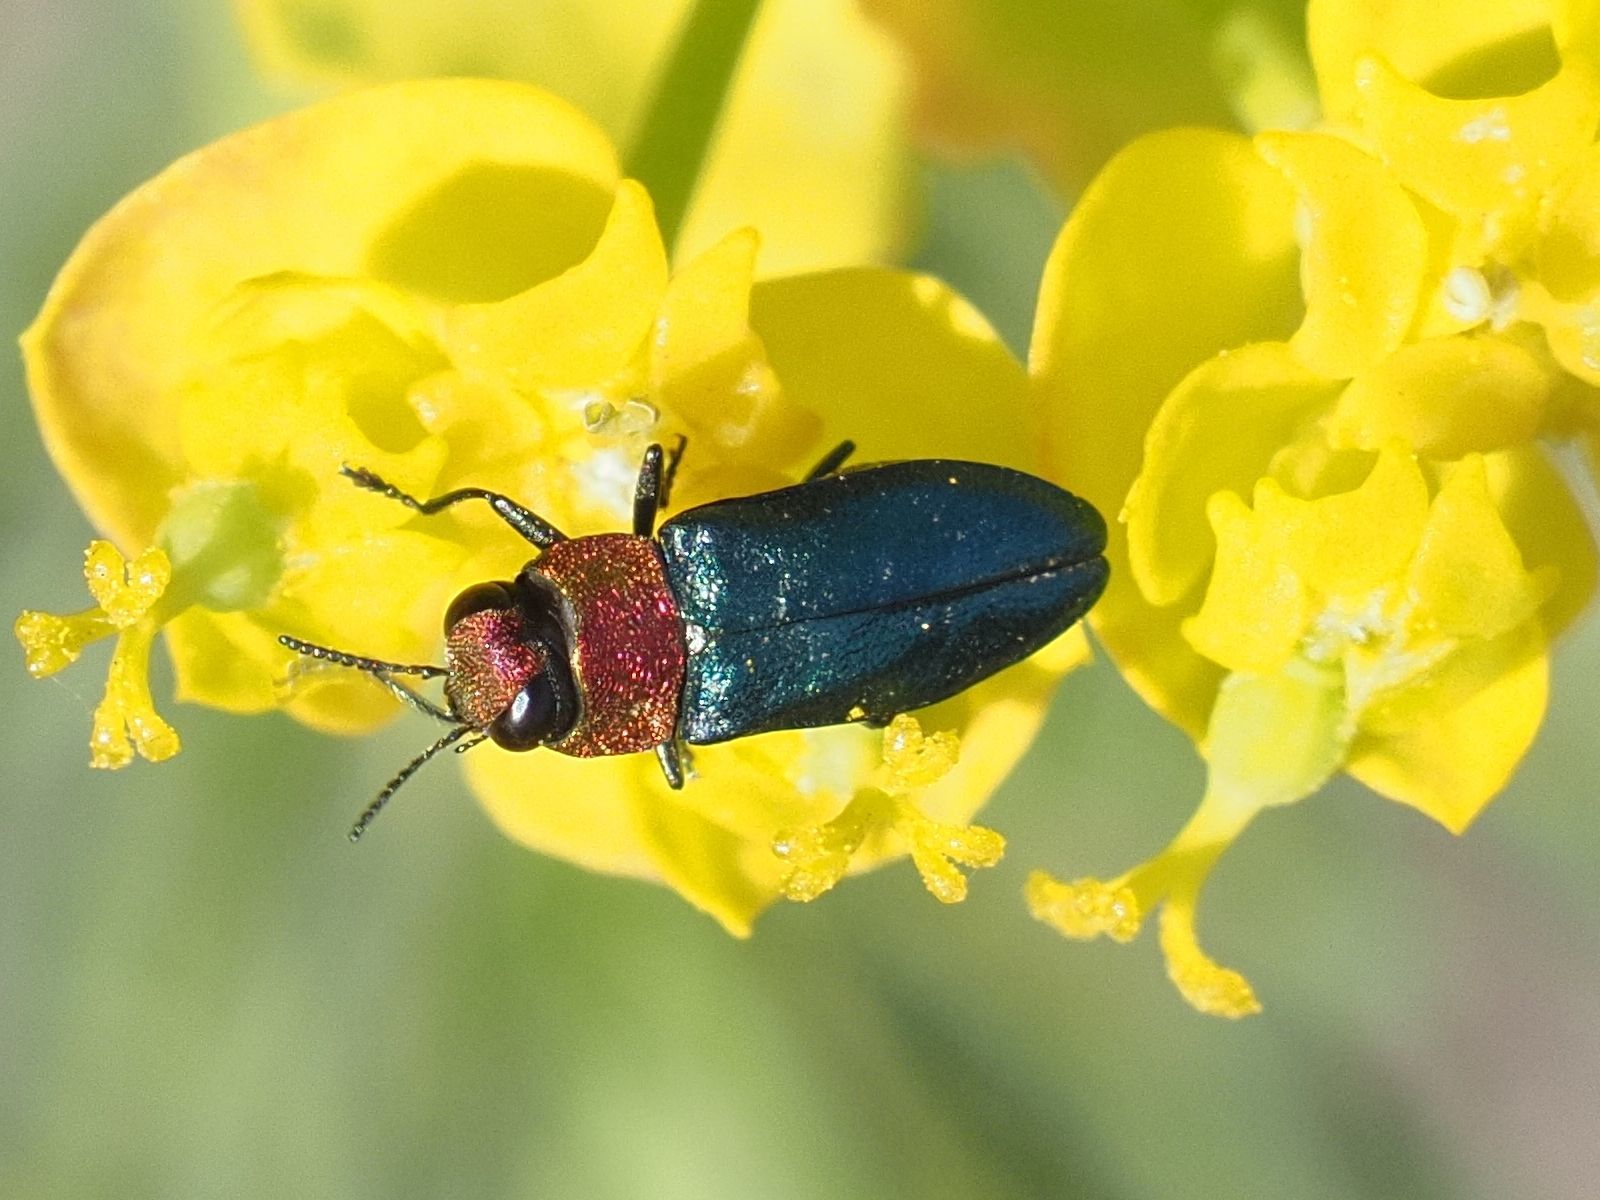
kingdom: Animalia
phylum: Arthropoda
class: Insecta
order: Coleoptera
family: Buprestidae
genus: Anthaxia
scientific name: Anthaxia nitidula
